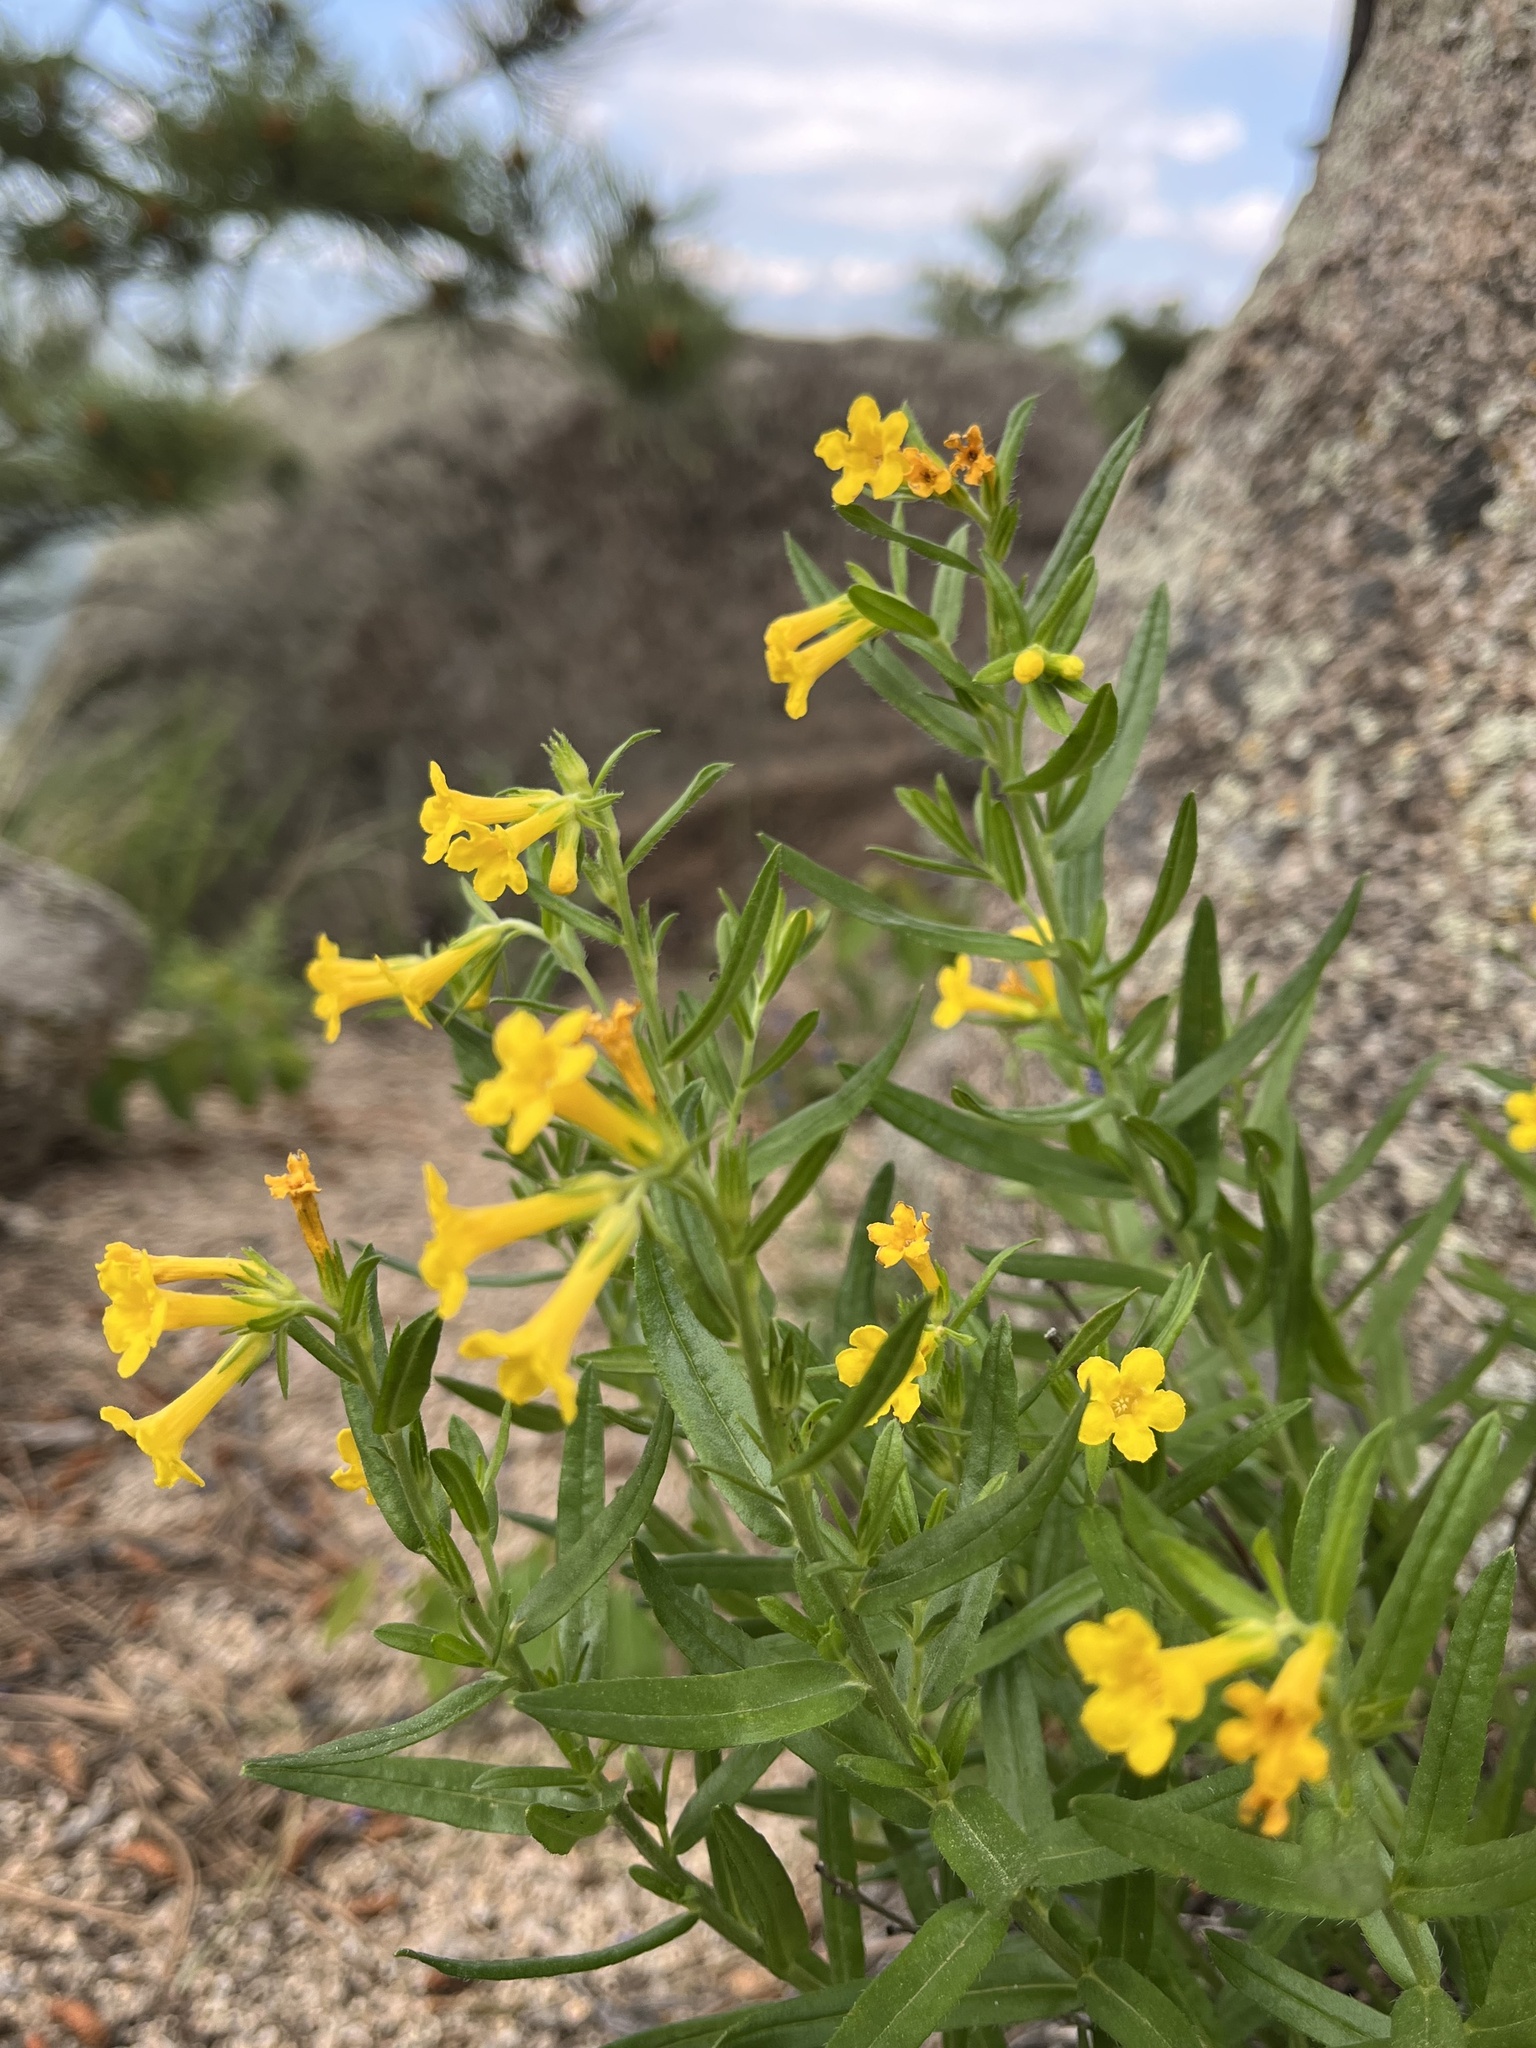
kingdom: Plantae
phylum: Tracheophyta
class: Magnoliopsida
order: Boraginales
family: Boraginaceae
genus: Lithospermum
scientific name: Lithospermum multiflorum
